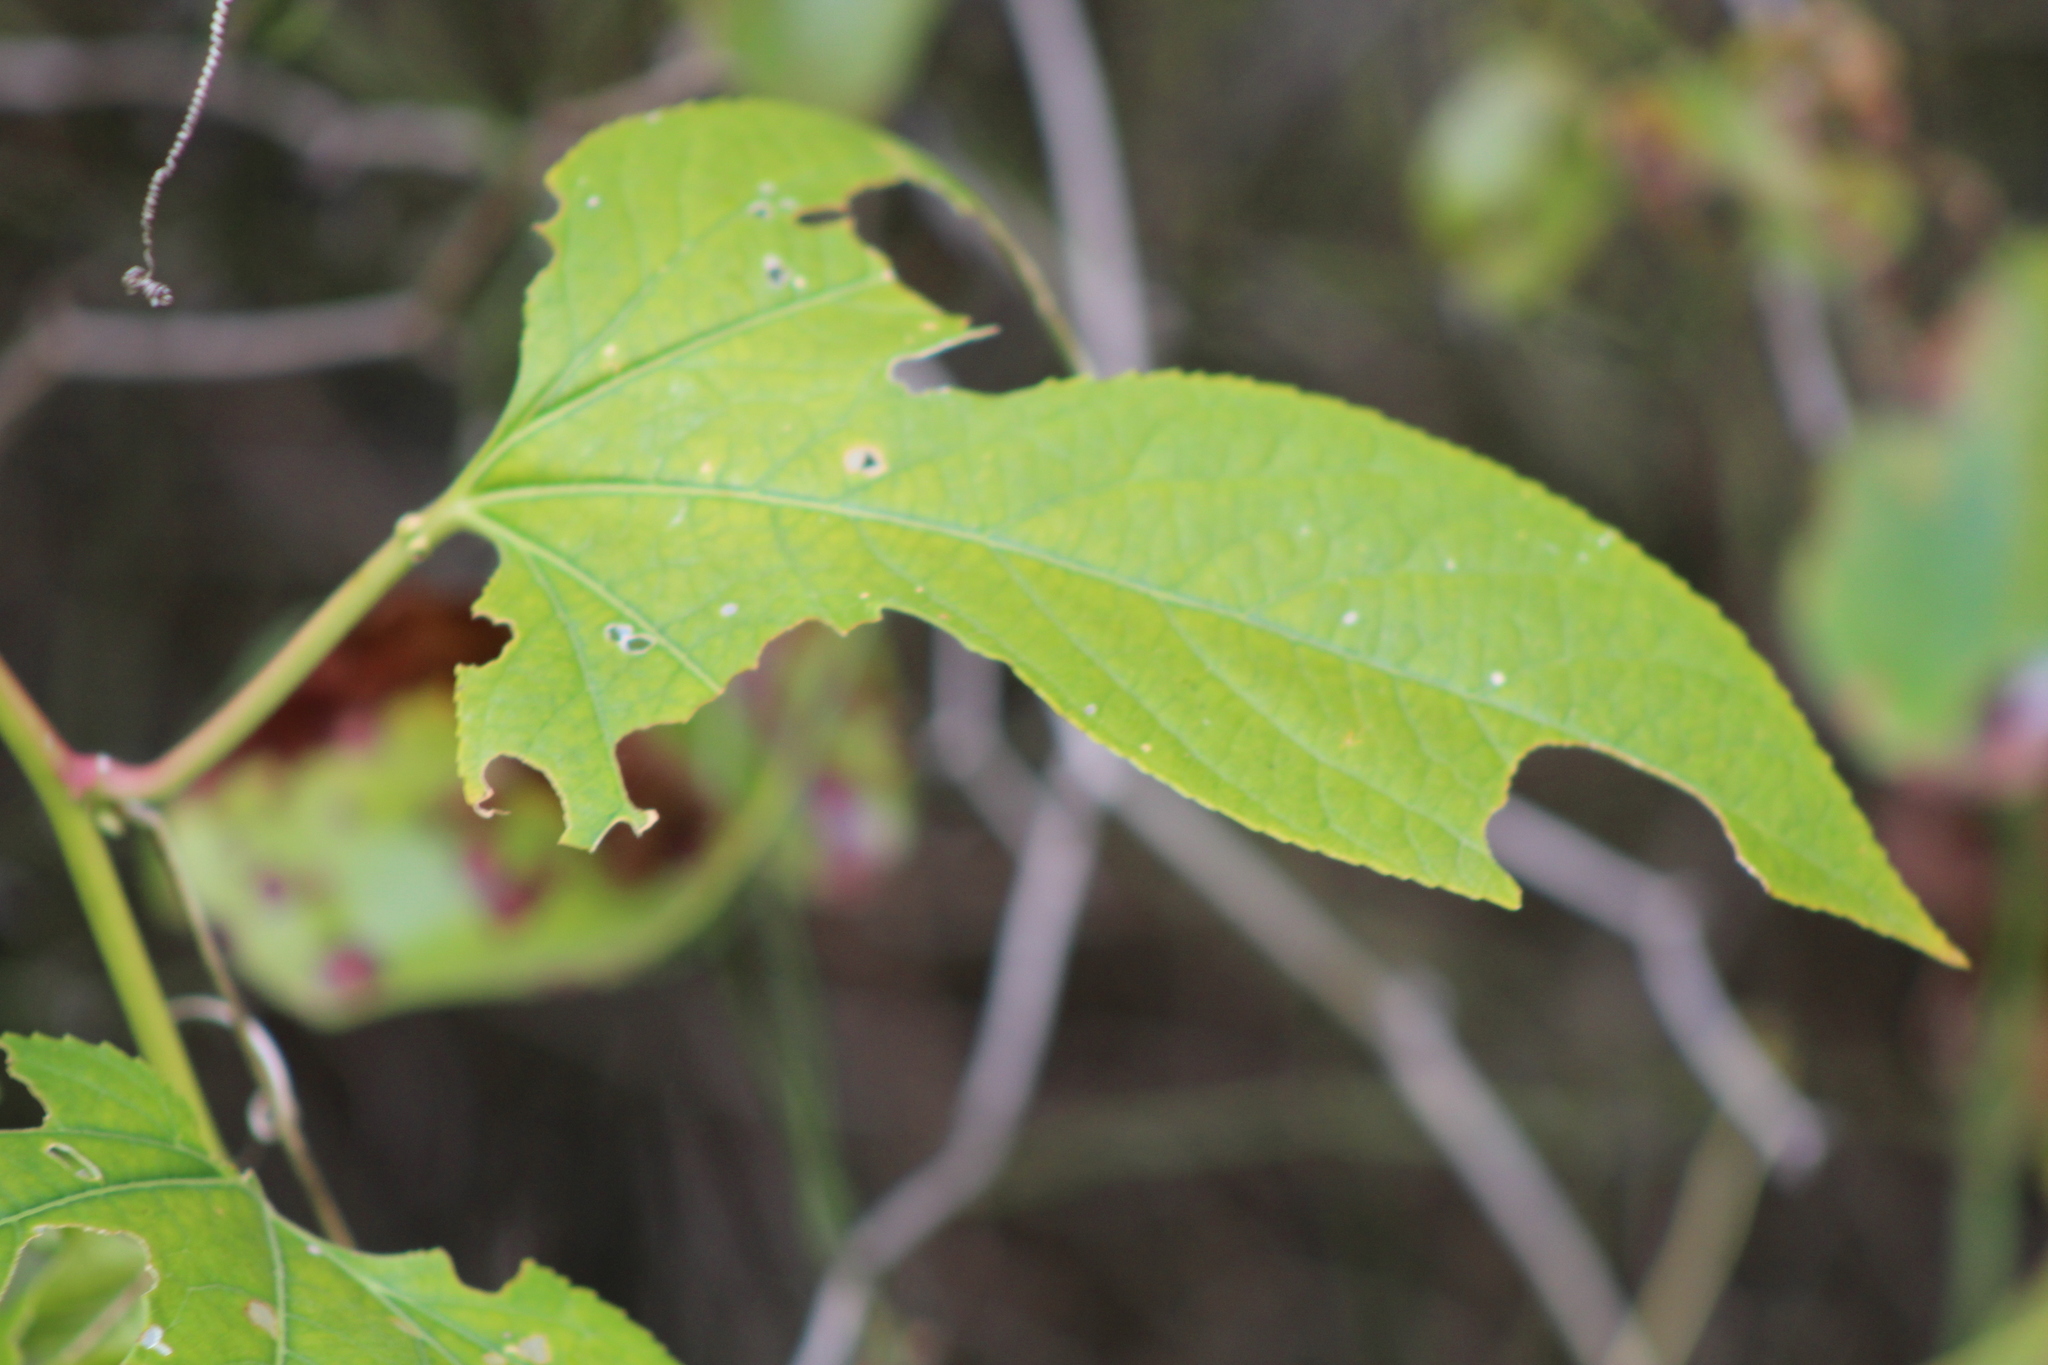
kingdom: Plantae
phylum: Tracheophyta
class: Magnoliopsida
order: Malpighiales
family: Passifloraceae
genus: Passiflora
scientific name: Passiflora incarnata
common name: Apricot-vine
